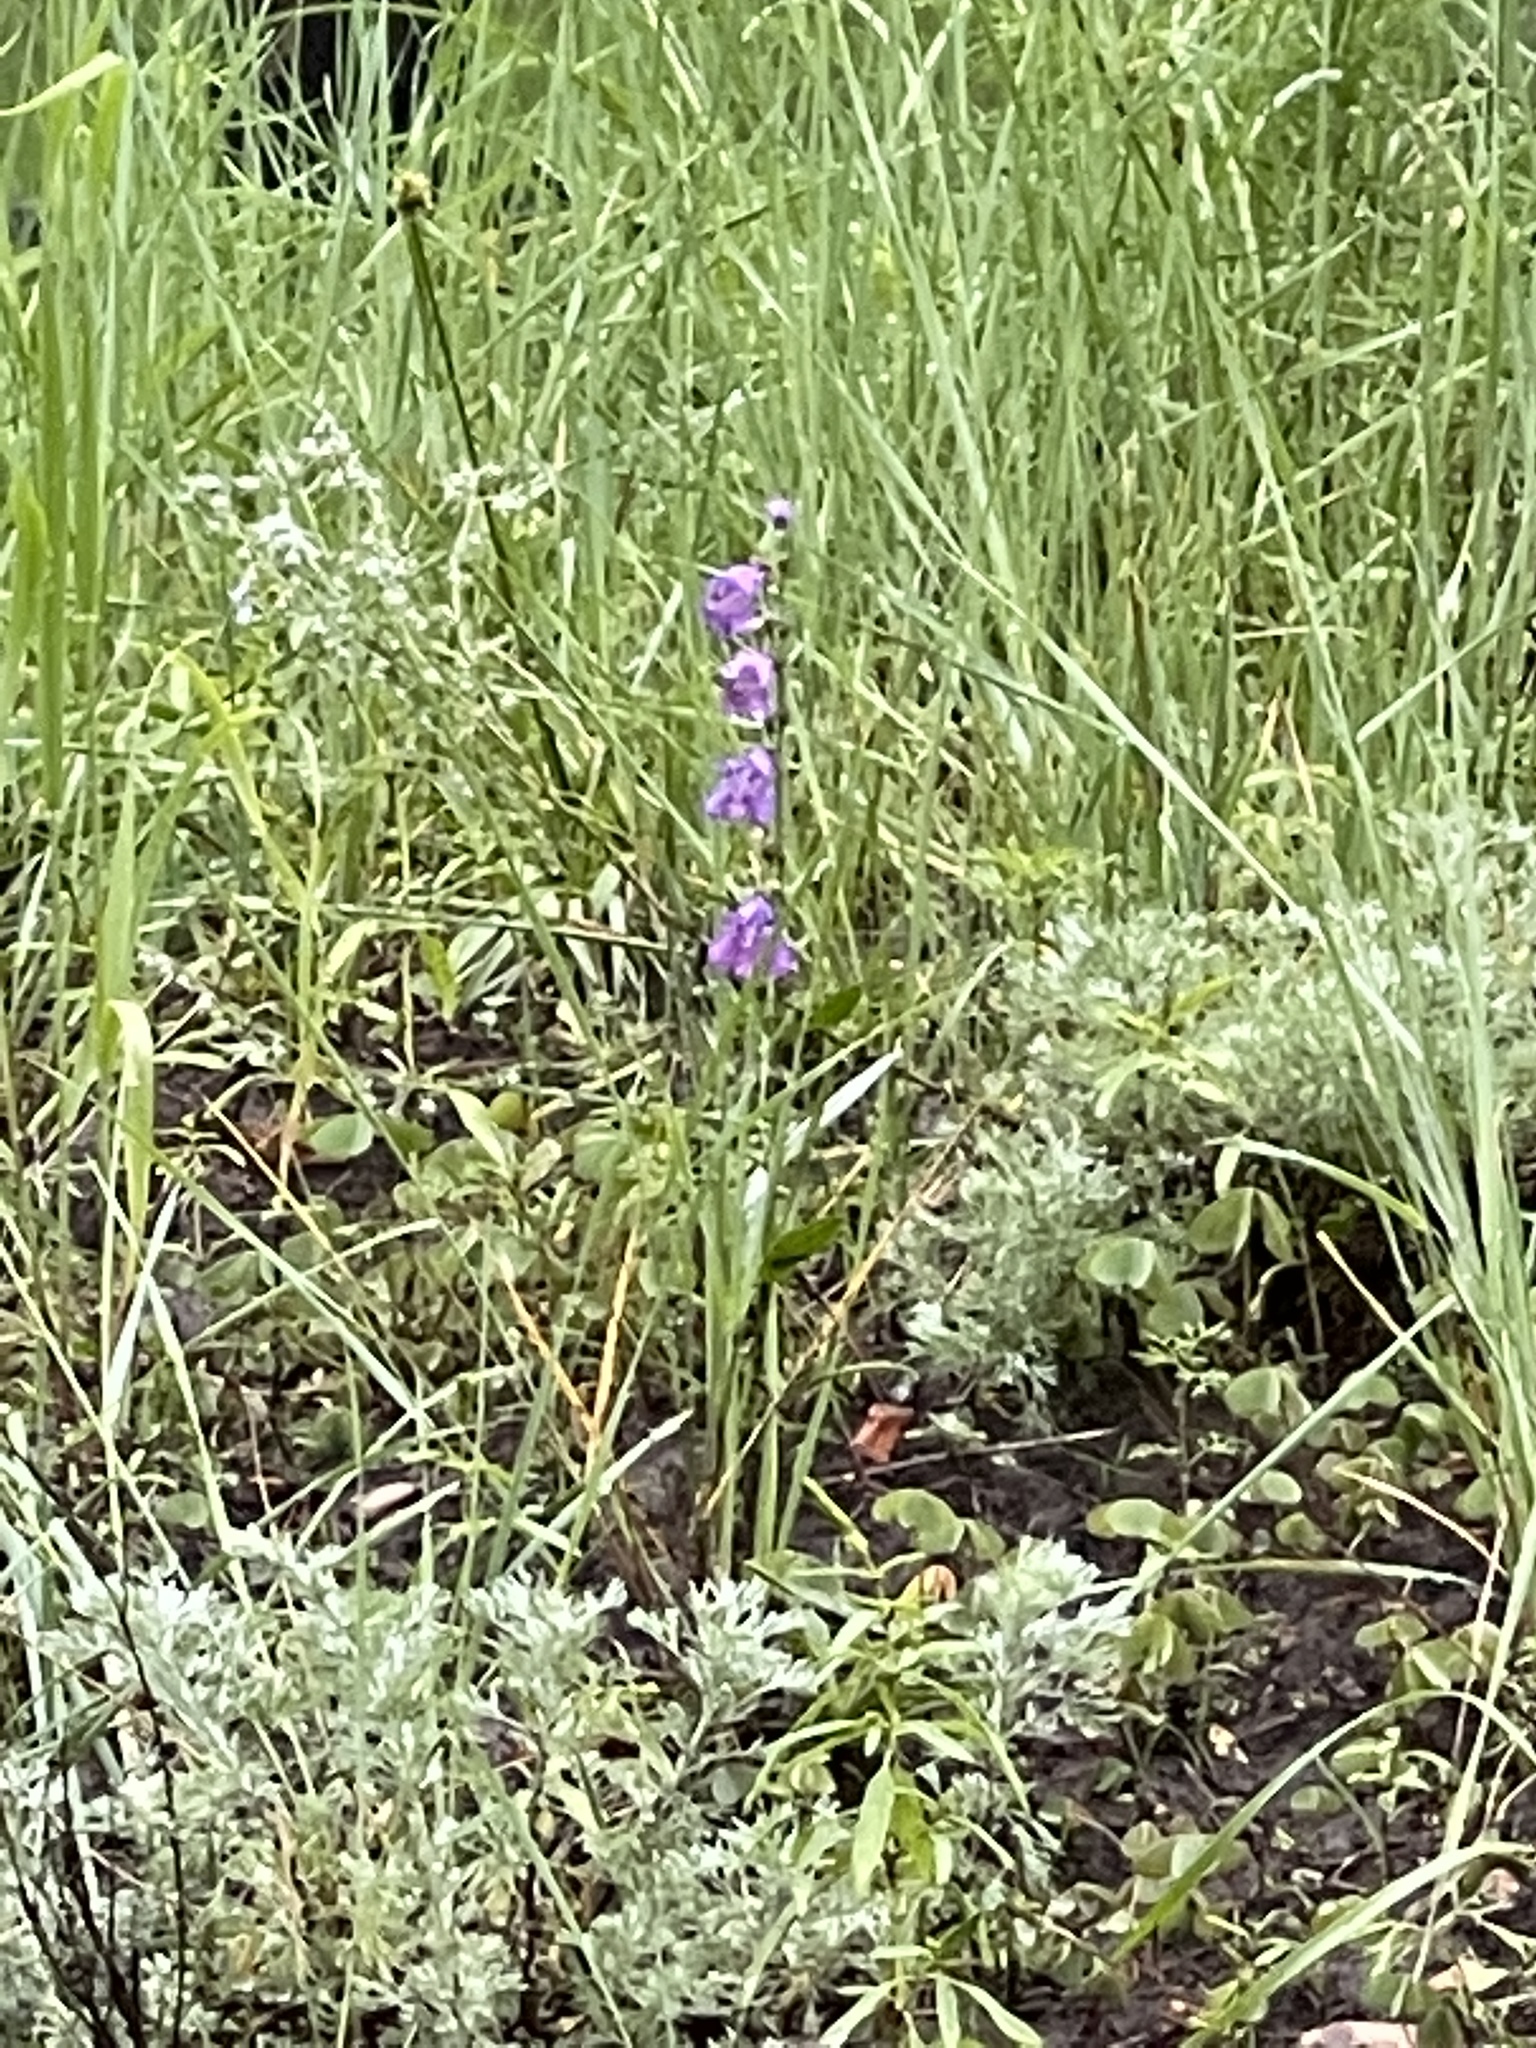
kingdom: Plantae
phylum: Tracheophyta
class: Magnoliopsida
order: Lamiales
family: Plantaginaceae
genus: Penstemon
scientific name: Penstemon neomexicanus
